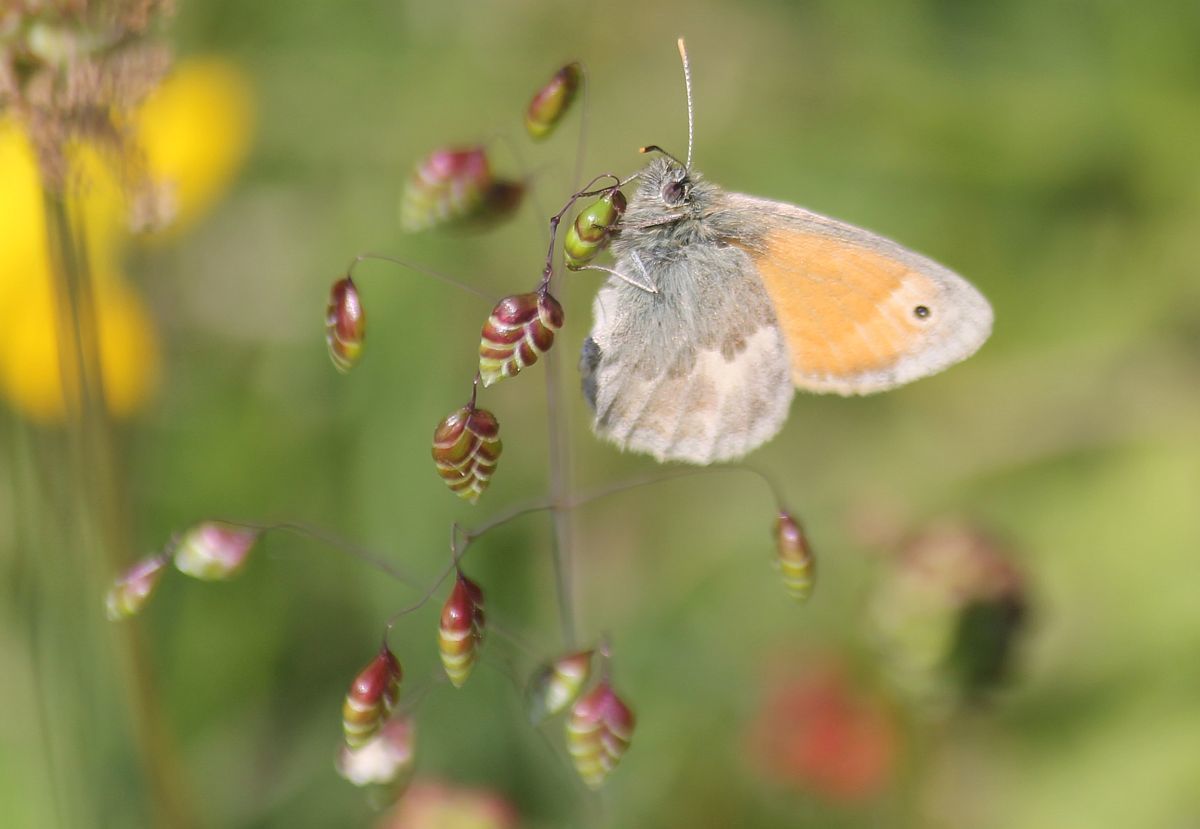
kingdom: Animalia
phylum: Arthropoda
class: Insecta
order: Lepidoptera
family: Nymphalidae
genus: Coenonympha
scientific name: Coenonympha pamphilus
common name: Small heath
